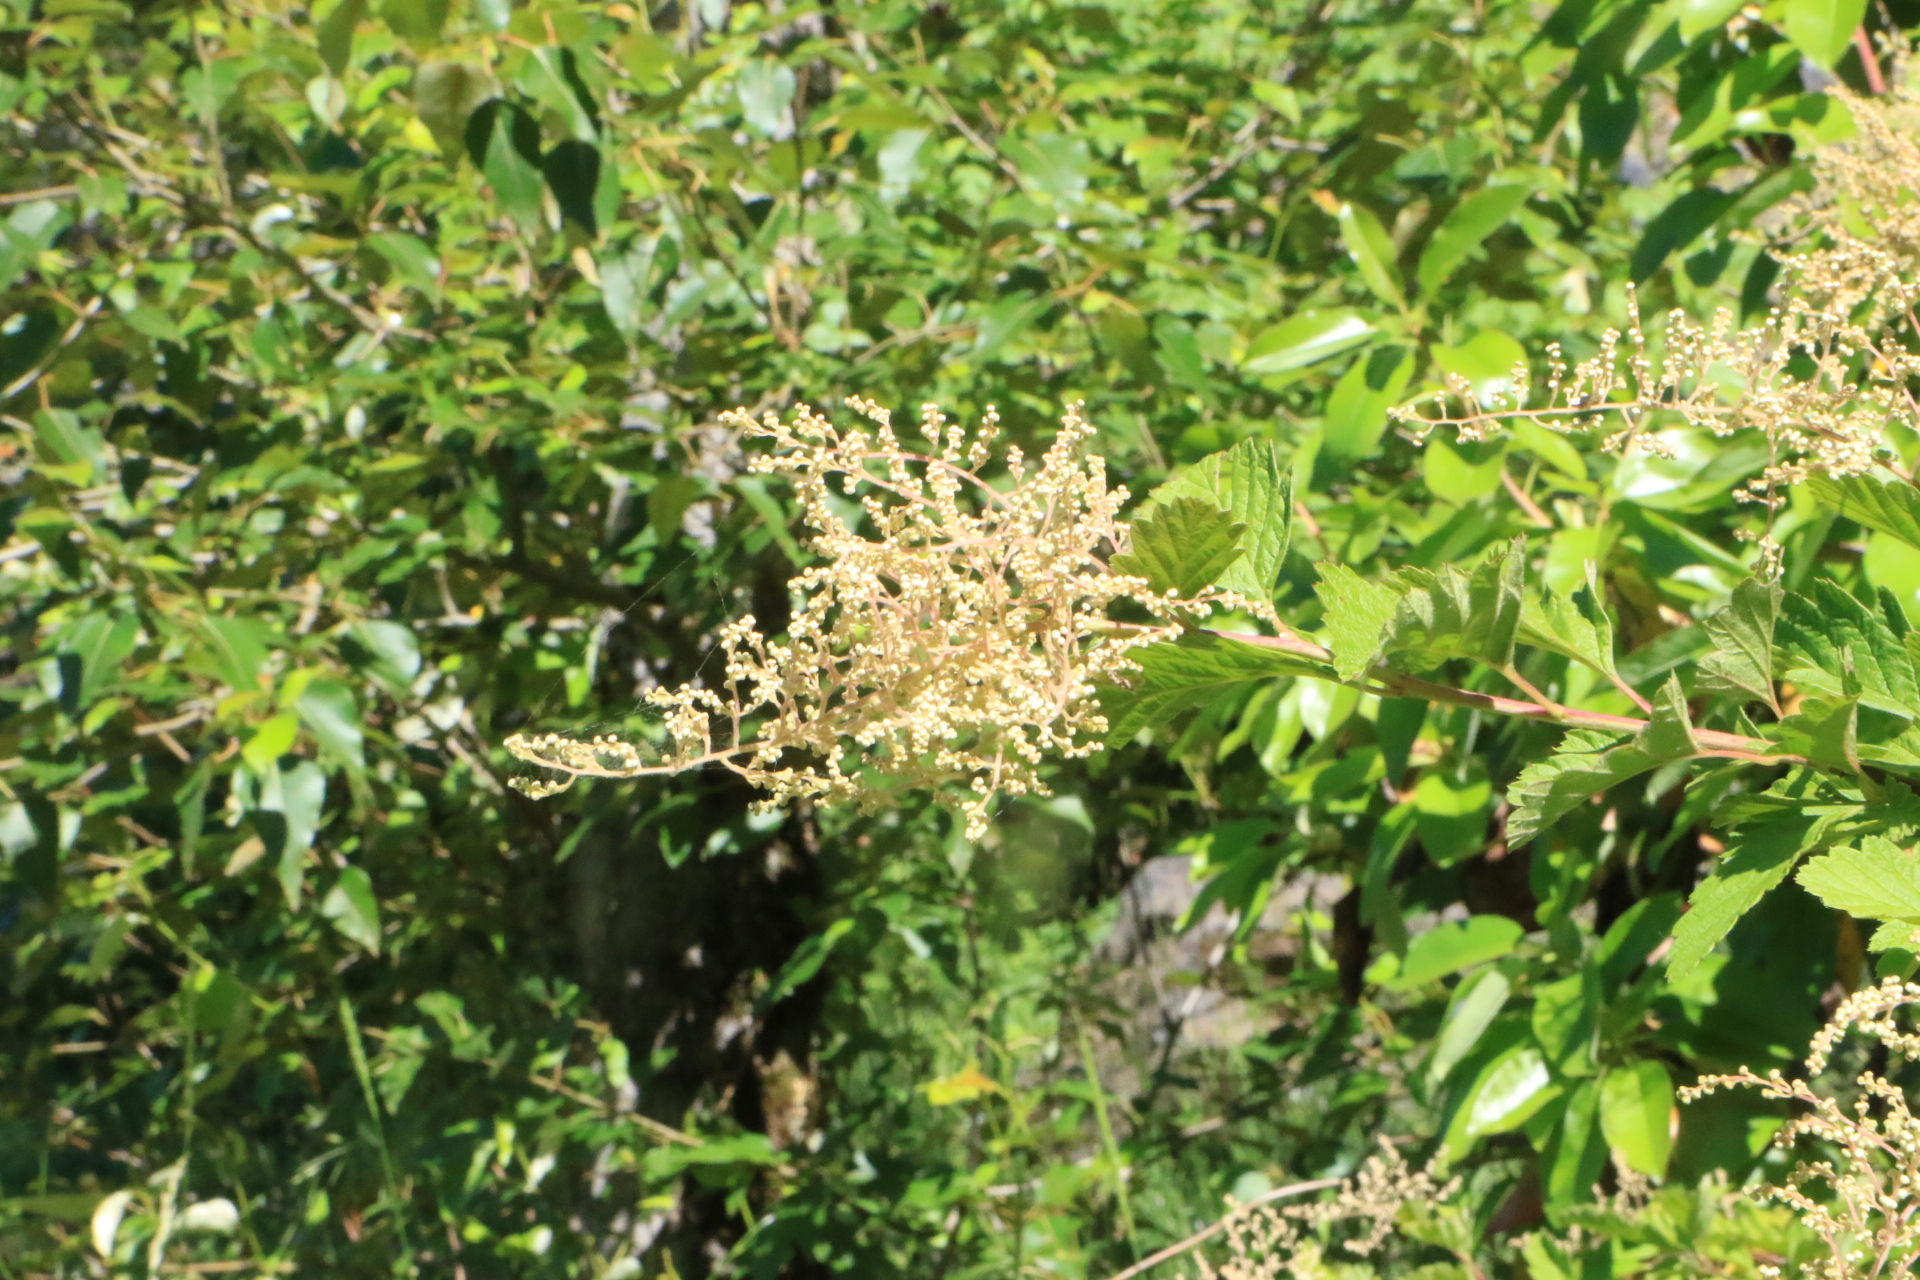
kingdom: Plantae
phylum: Tracheophyta
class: Magnoliopsida
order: Rosales
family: Rosaceae
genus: Holodiscus
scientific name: Holodiscus discolor
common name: Oceanspray
